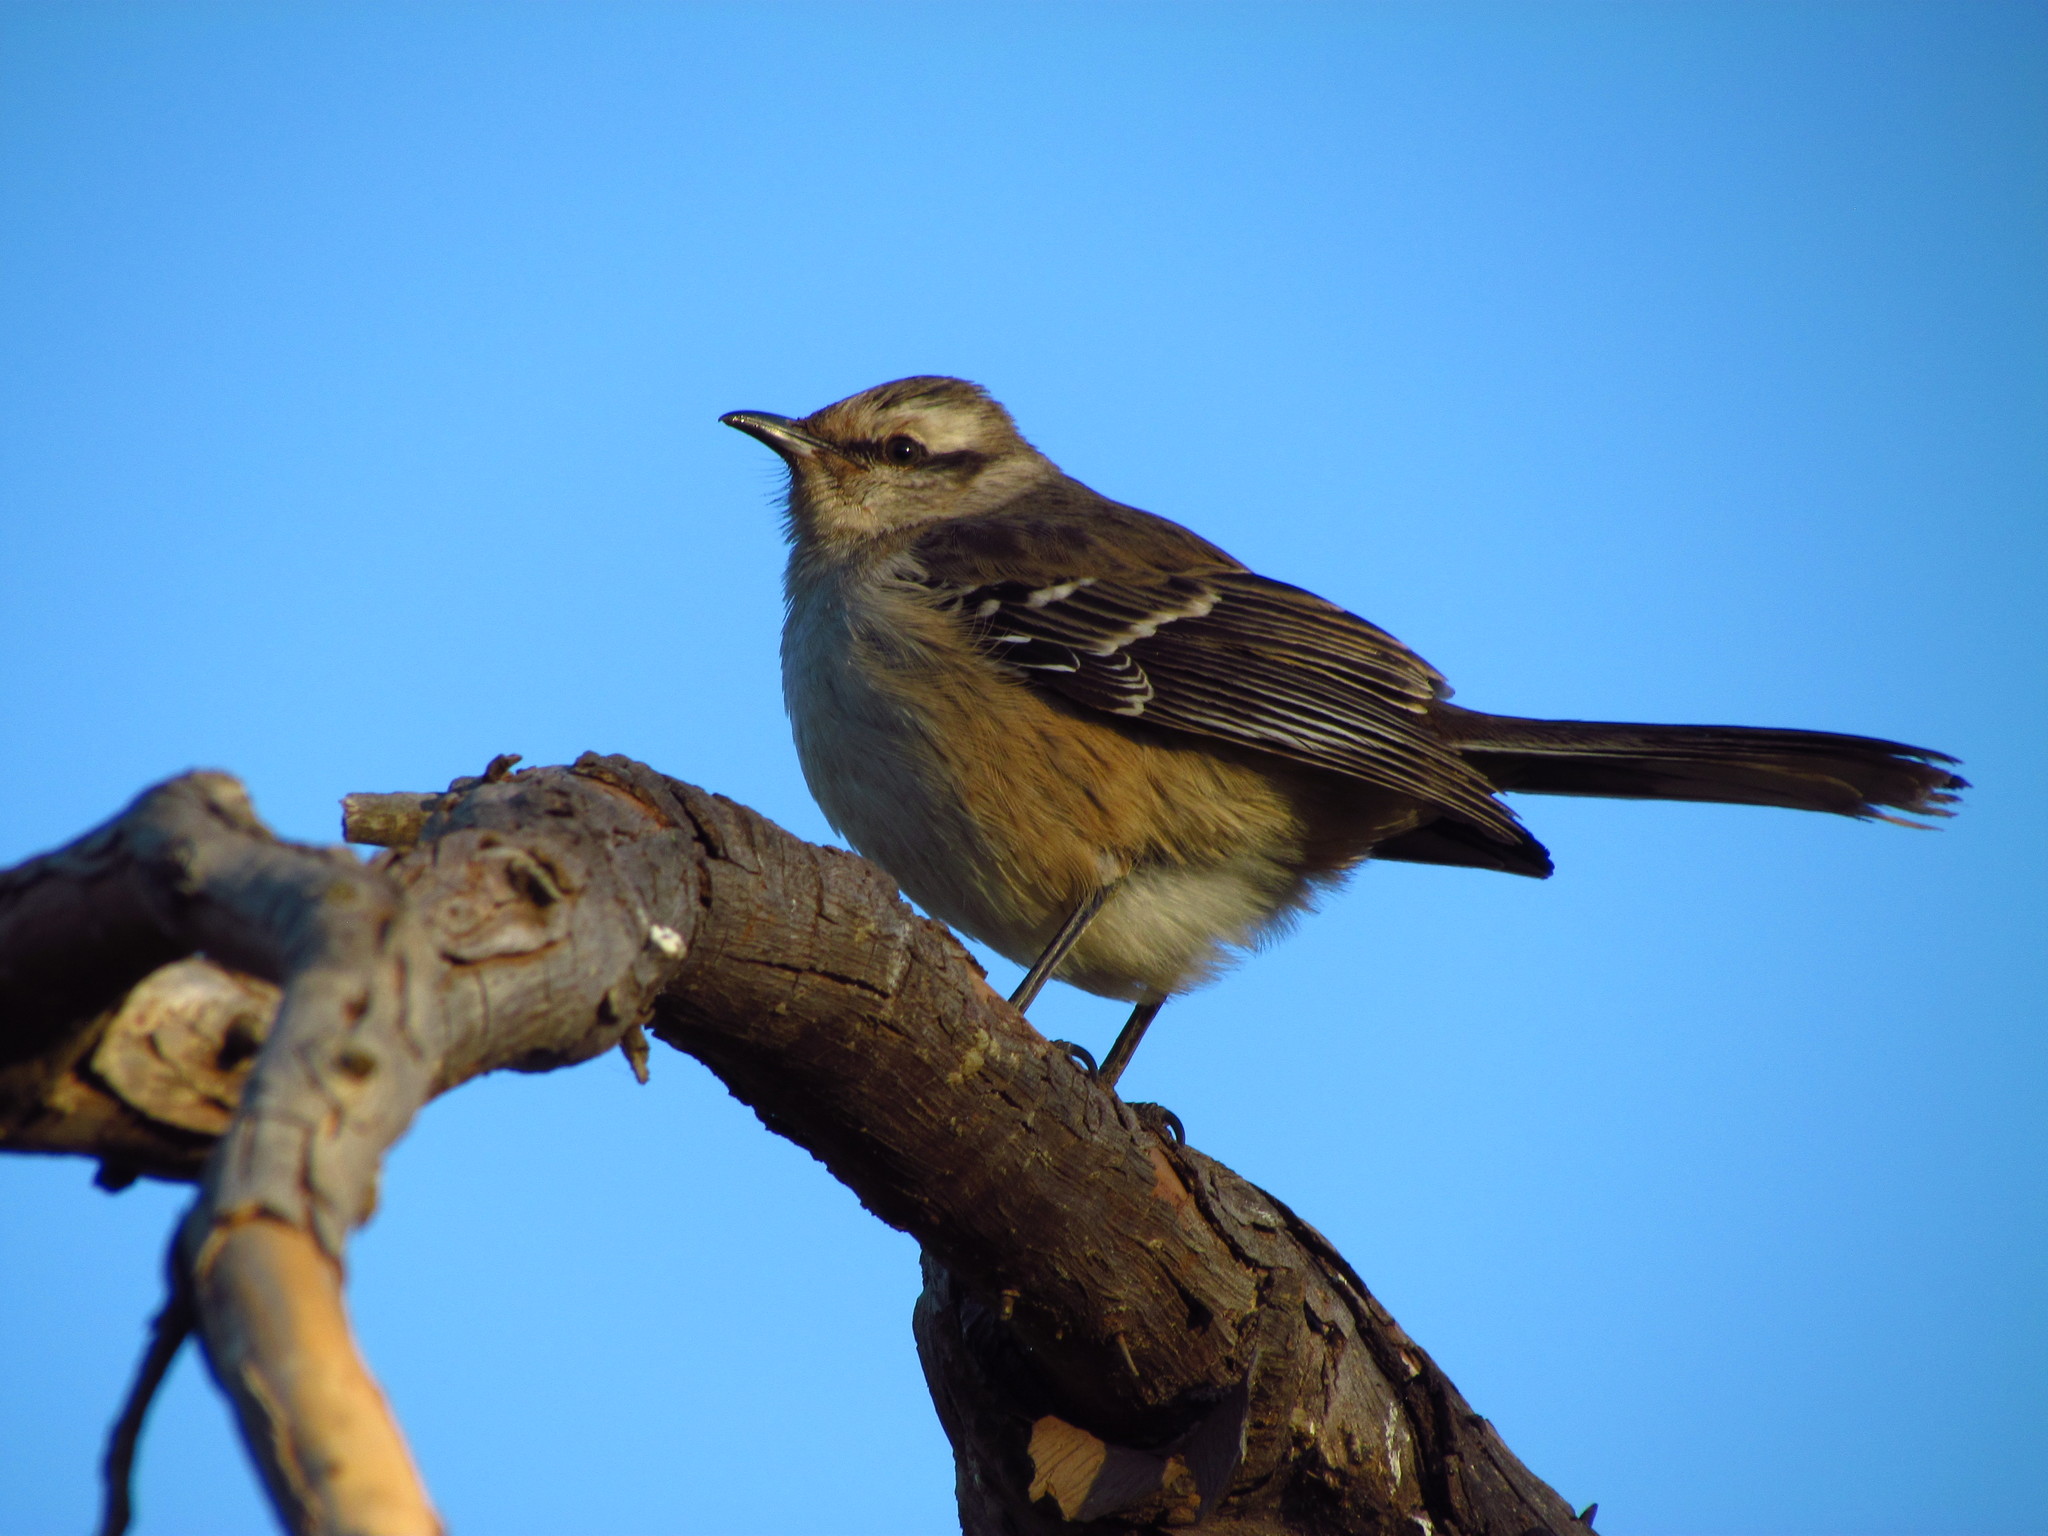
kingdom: Animalia
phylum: Chordata
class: Aves
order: Passeriformes
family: Mimidae
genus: Mimus
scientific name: Mimus saturninus
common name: Chalk-browed mockingbird
